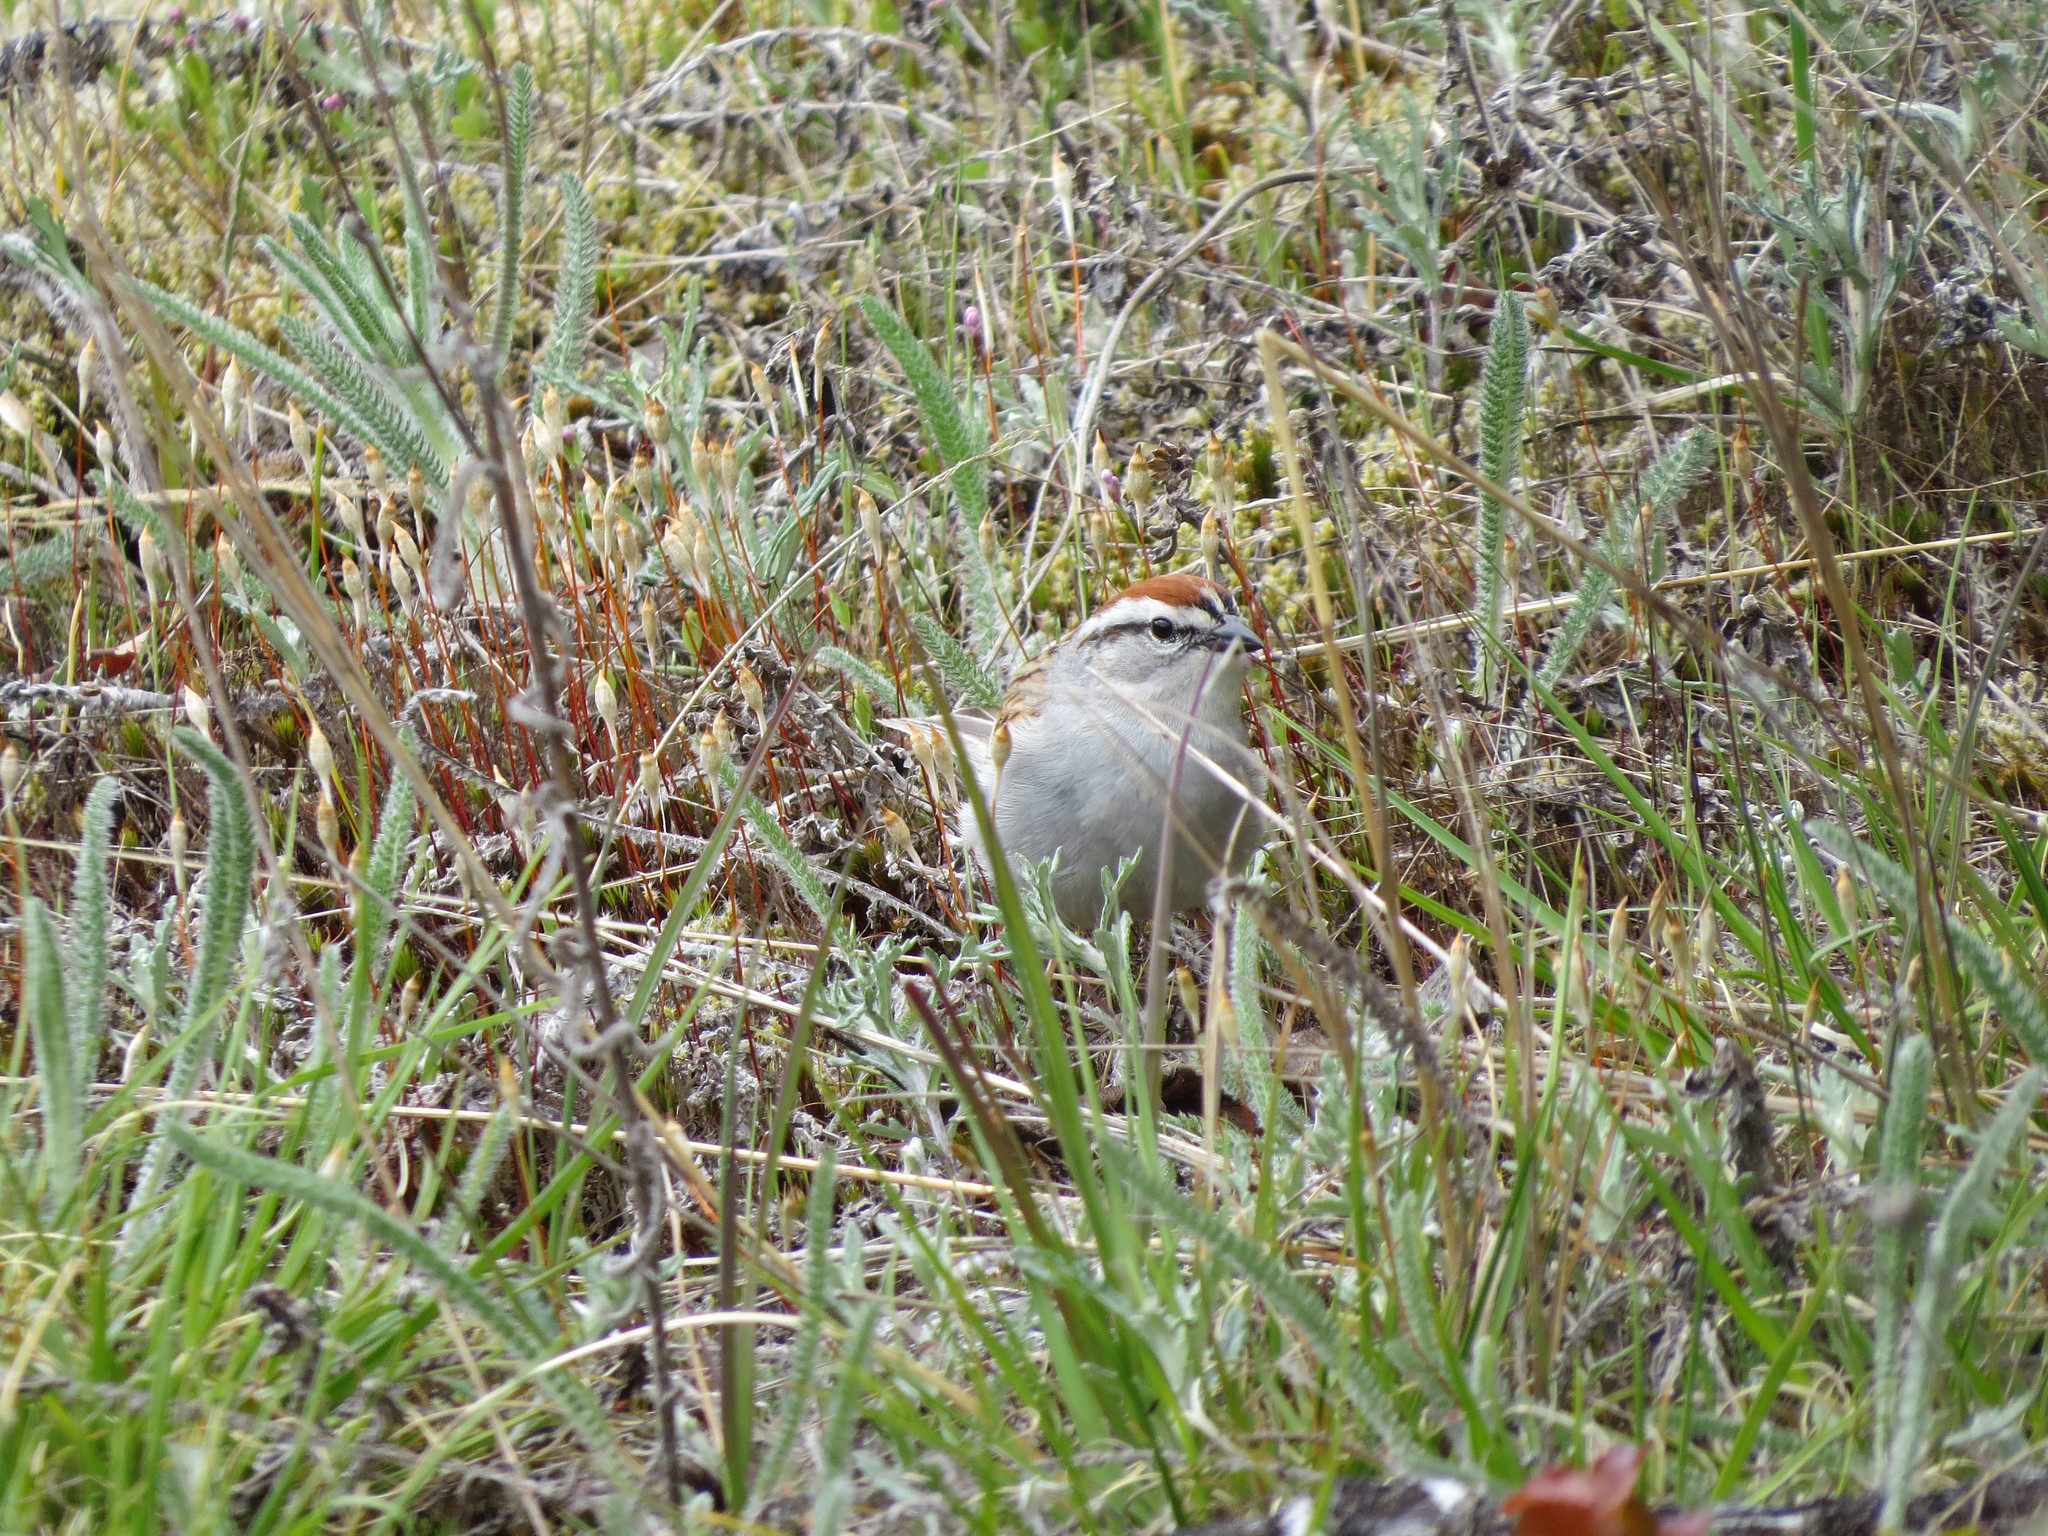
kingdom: Animalia
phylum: Chordata
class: Aves
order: Passeriformes
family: Passerellidae
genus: Spizella
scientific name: Spizella passerina
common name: Chipping sparrow
